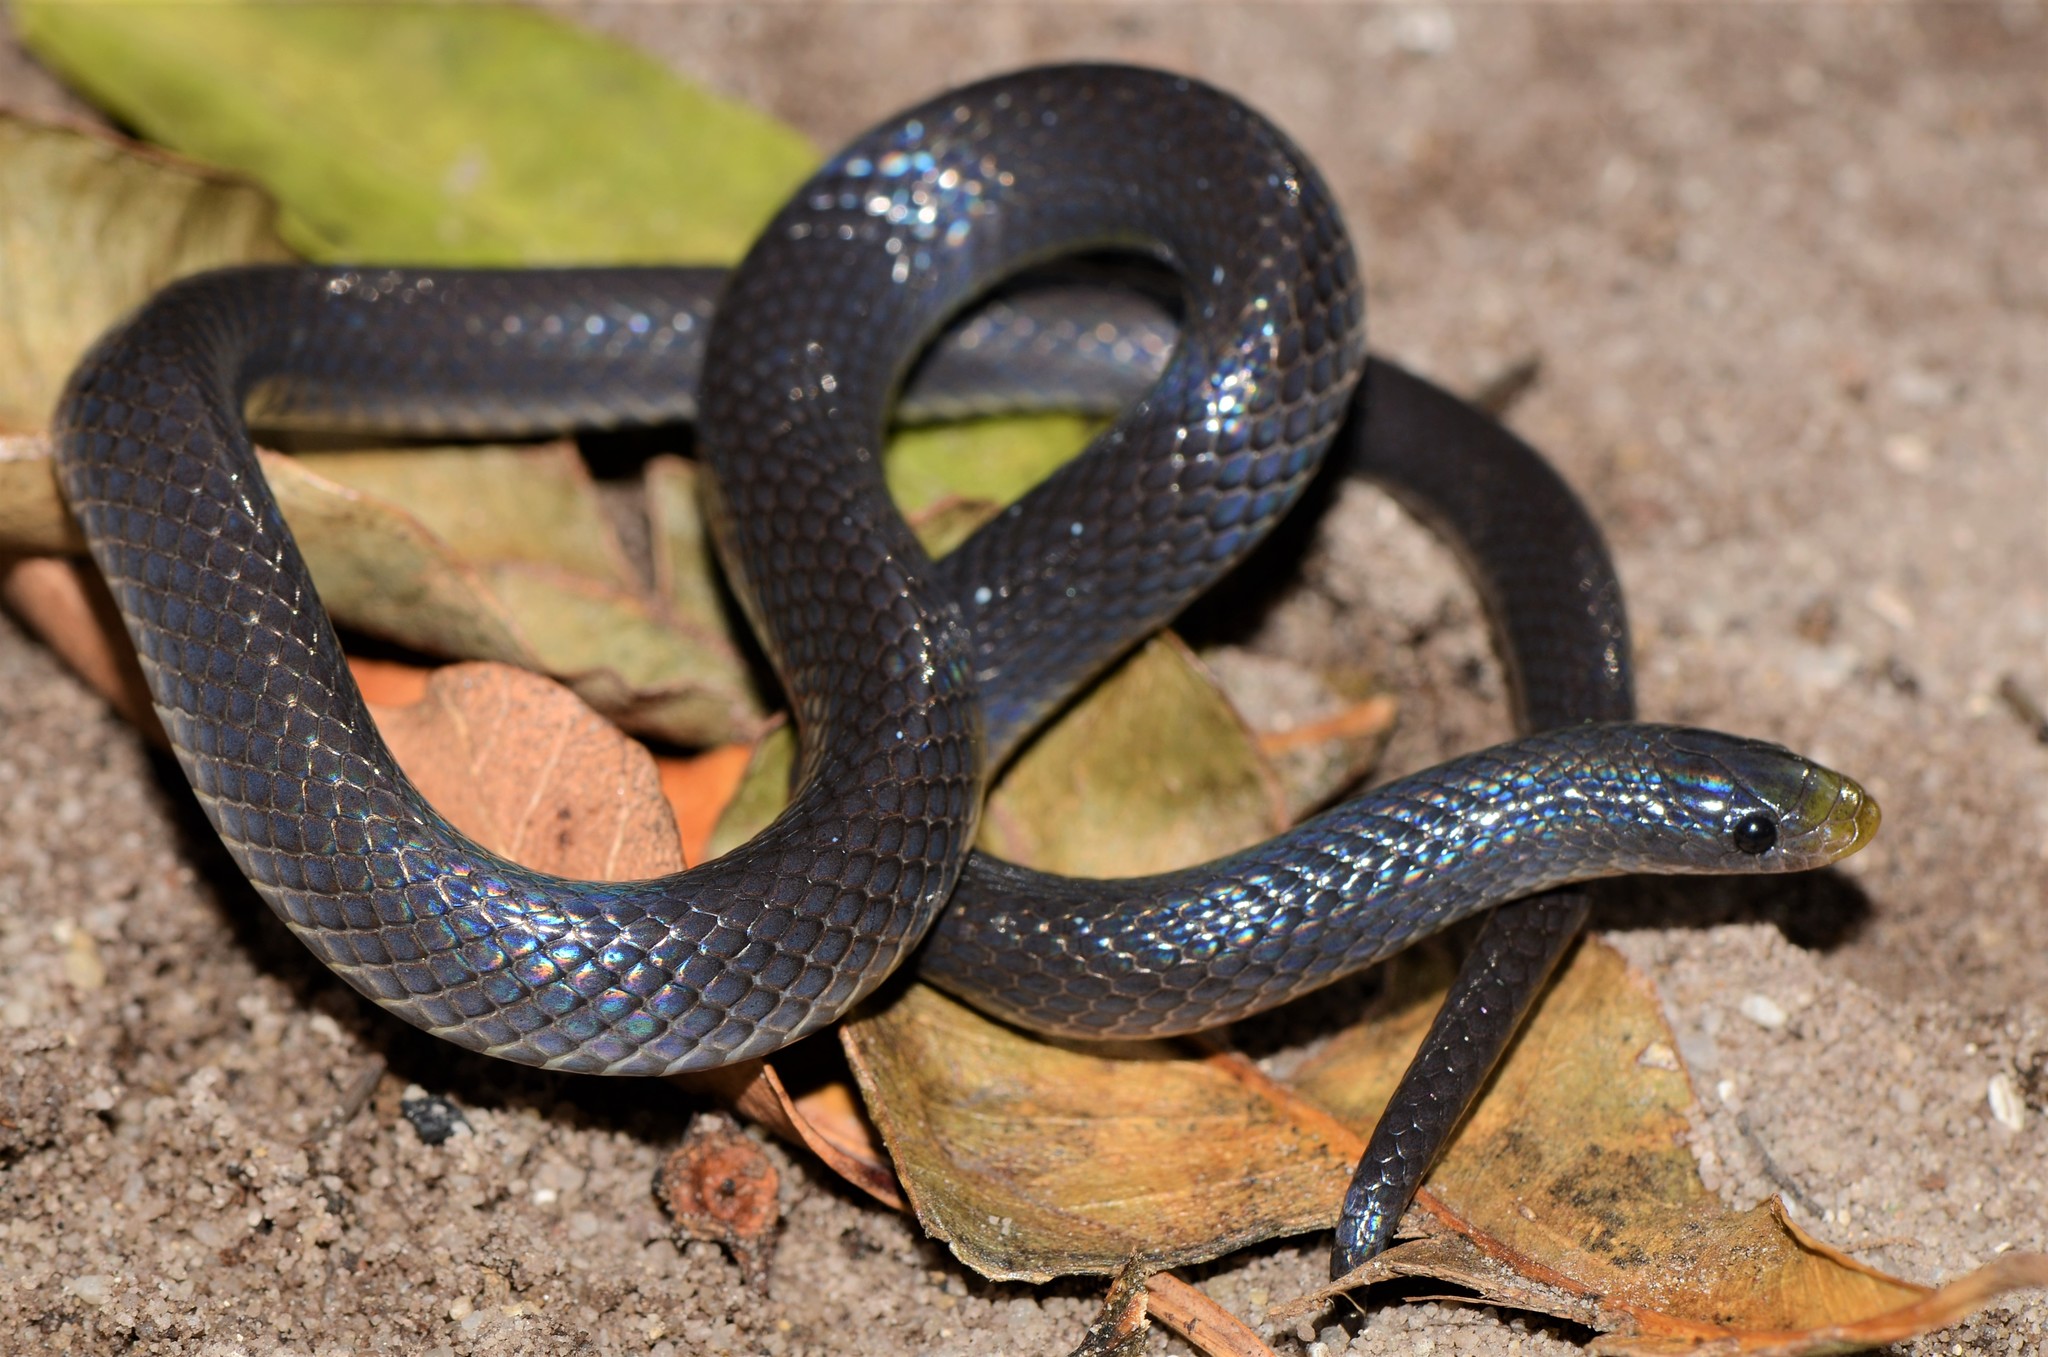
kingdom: Animalia
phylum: Chordata
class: Squamata
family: Prosymnidae
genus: Prosymna
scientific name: Prosymna stuhlmanni
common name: East african shovel-snout snake
